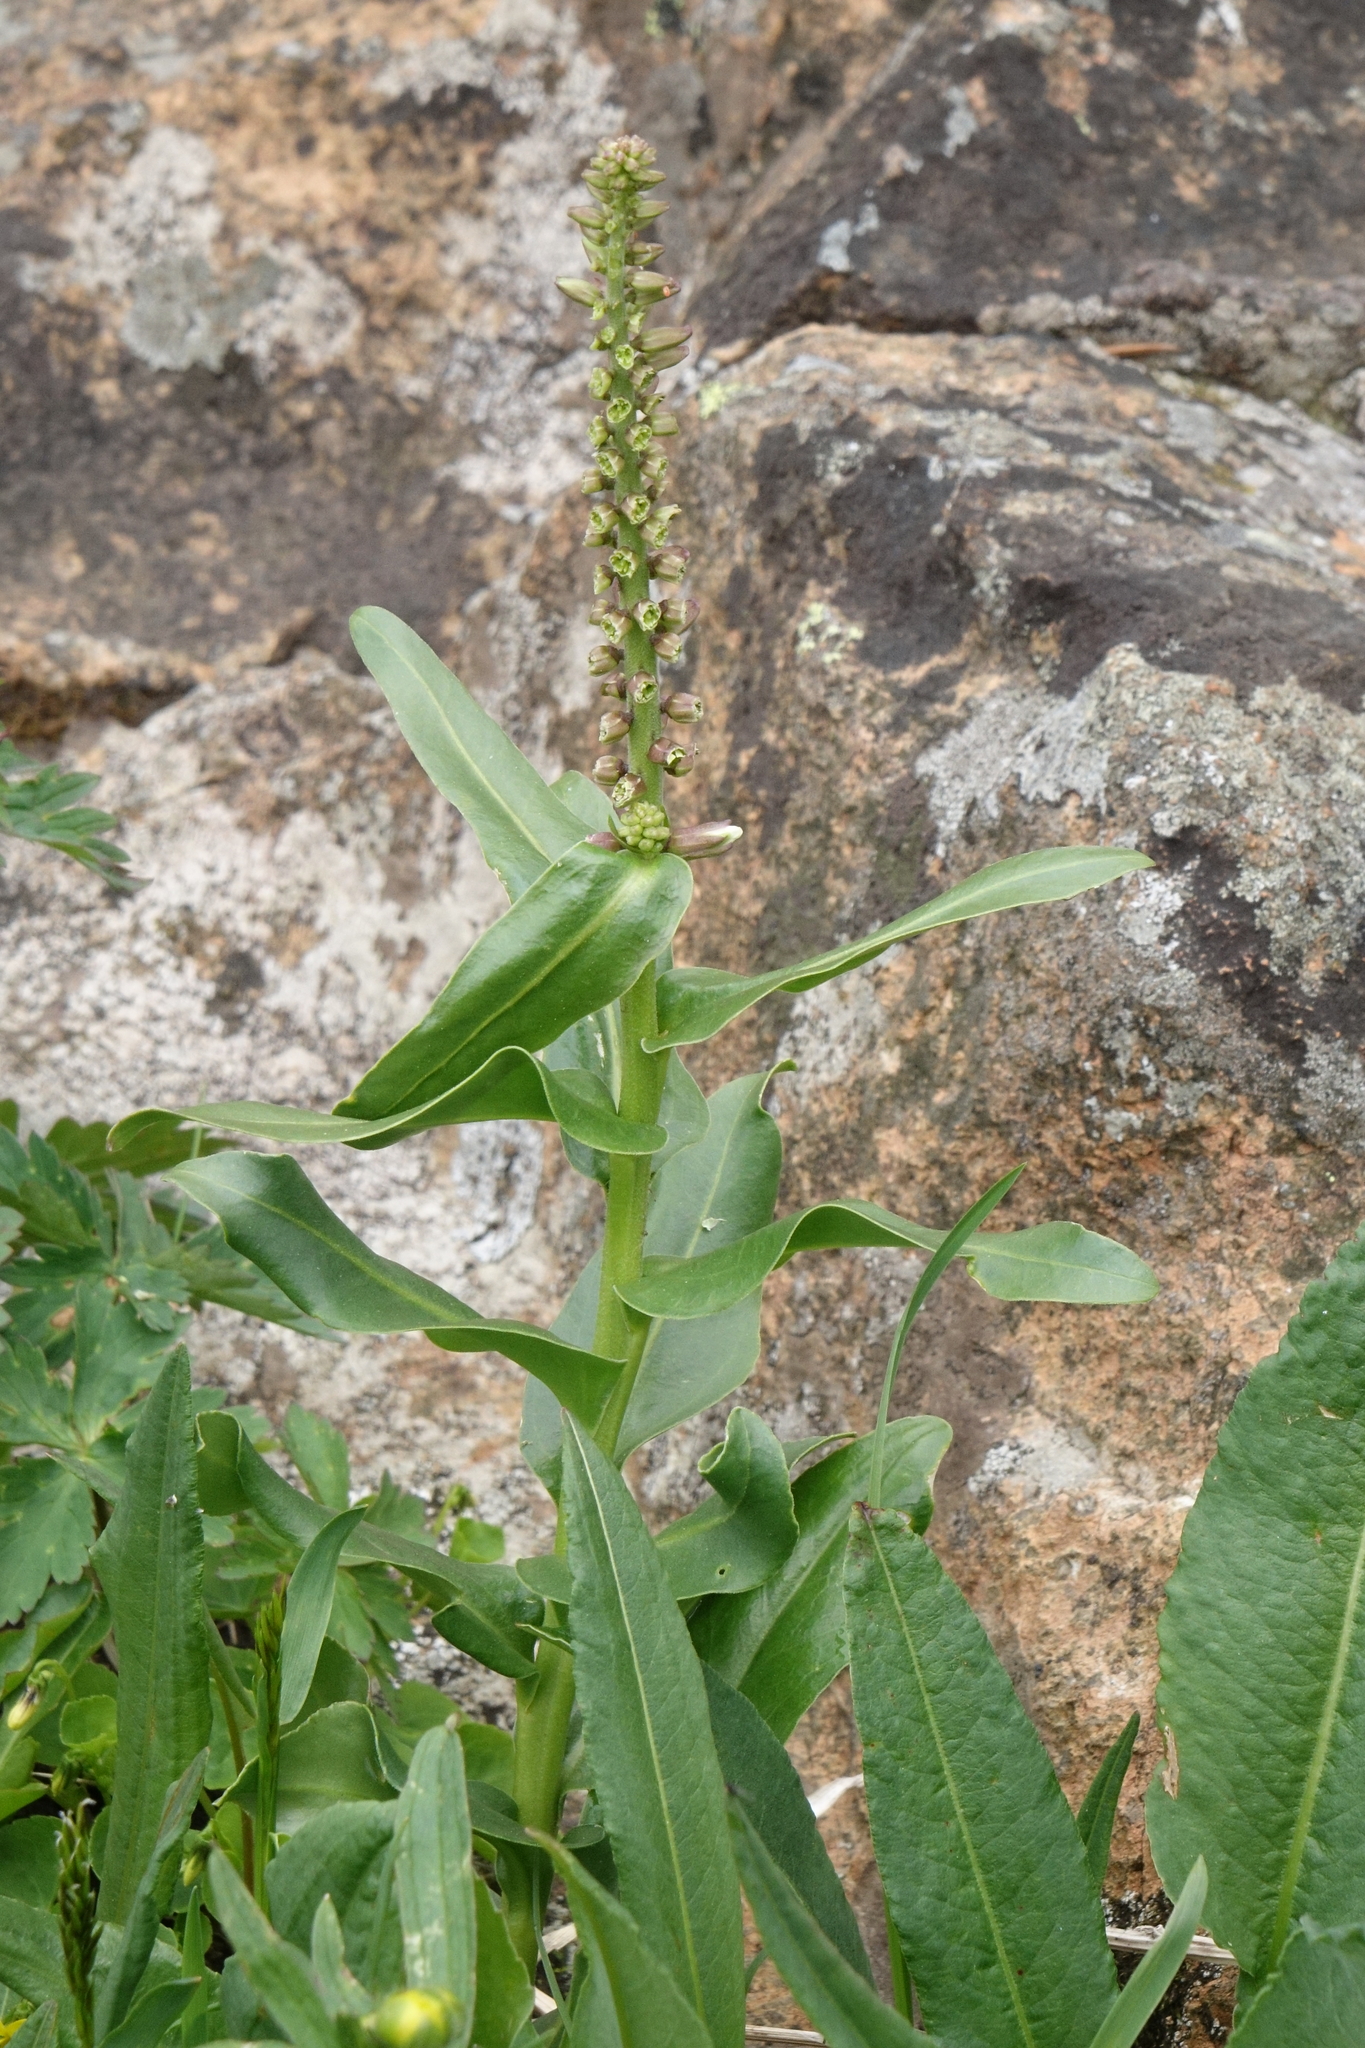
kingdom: Plantae
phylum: Tracheophyta
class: Magnoliopsida
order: Brassicales
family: Brassicaceae
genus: Macropodium
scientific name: Macropodium nivale
